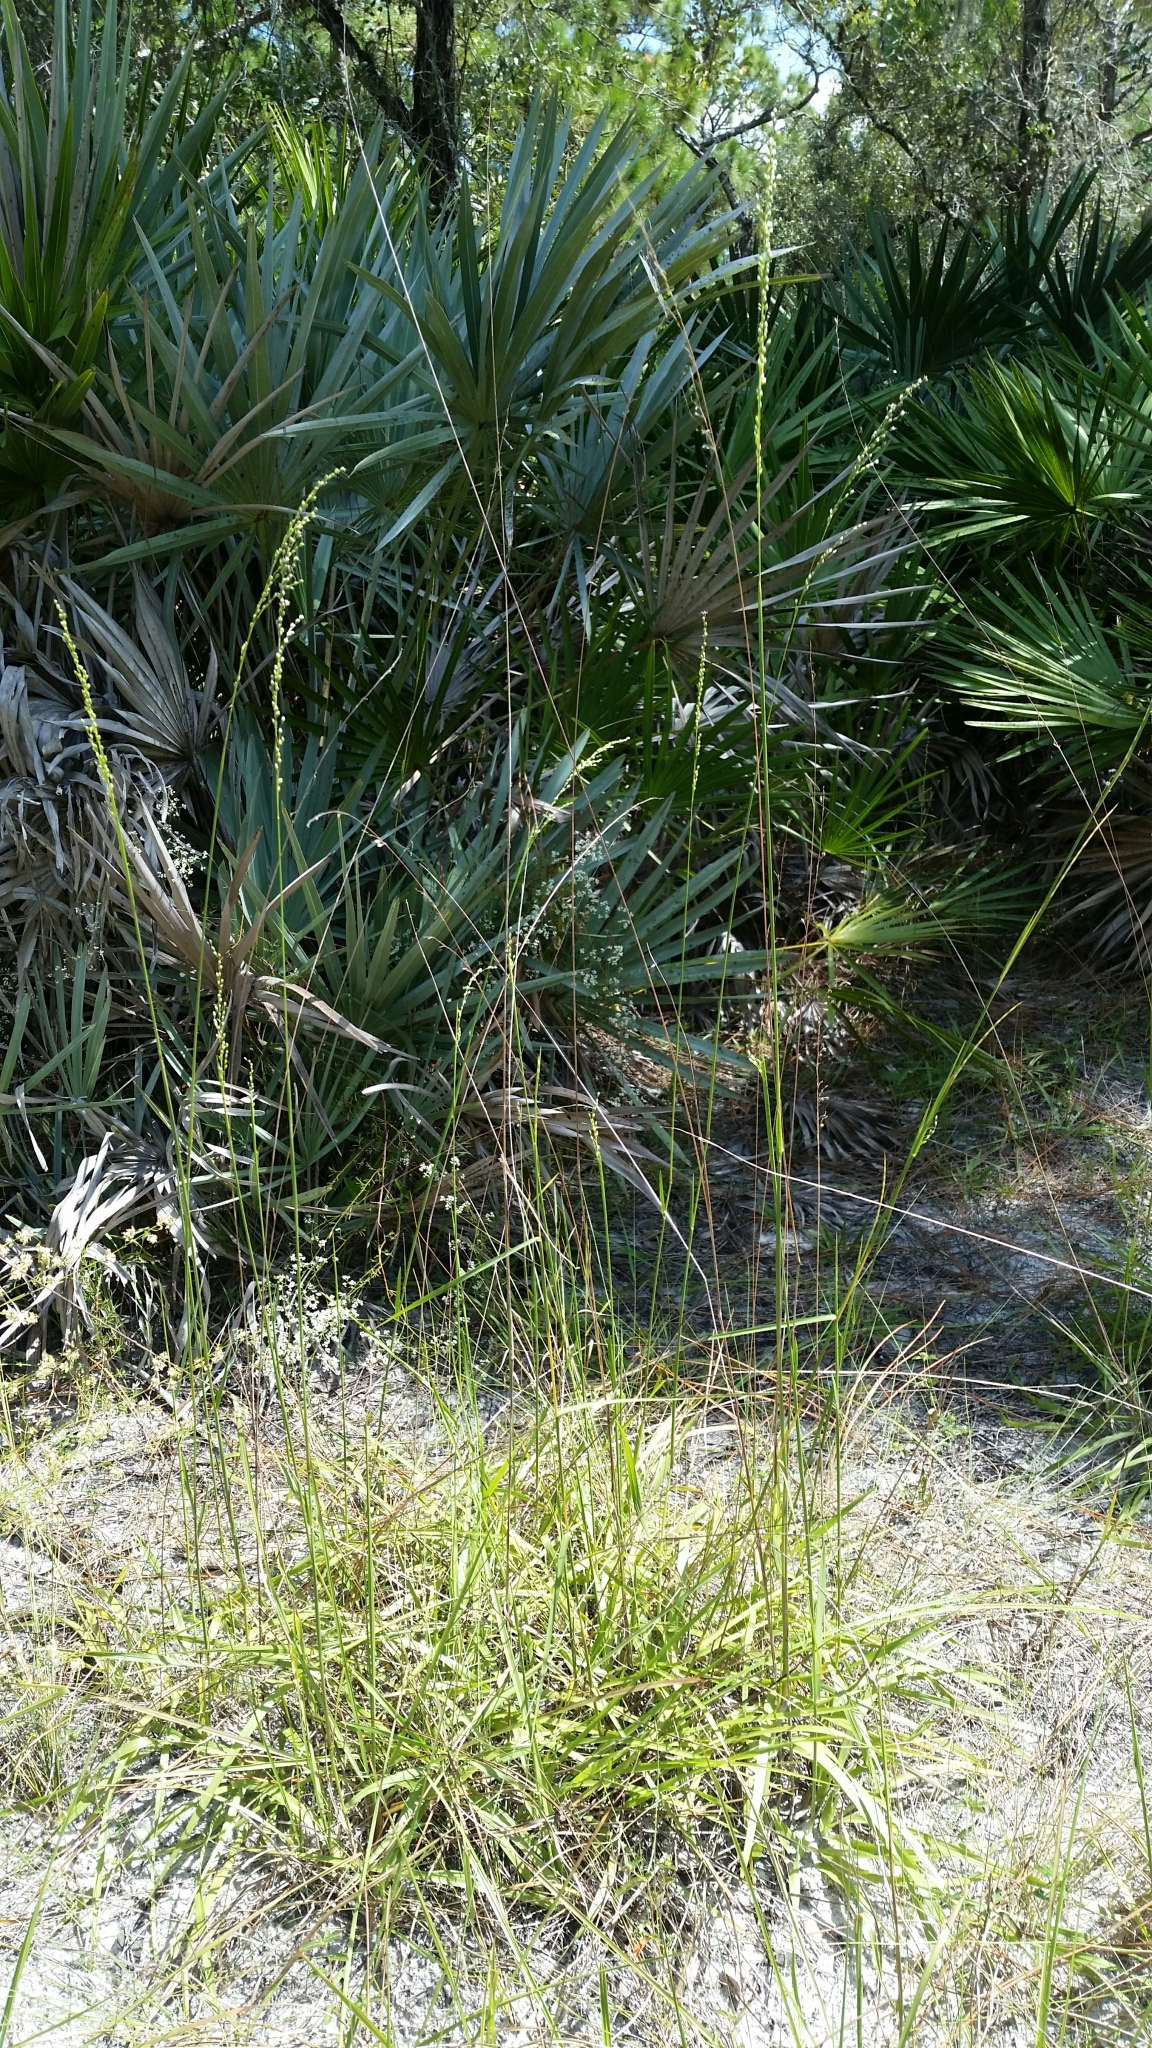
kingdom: Plantae
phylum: Tracheophyta
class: Liliopsida
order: Poales
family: Poaceae
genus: Anthenantia
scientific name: Anthenantia villosa
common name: Green silkyscale
